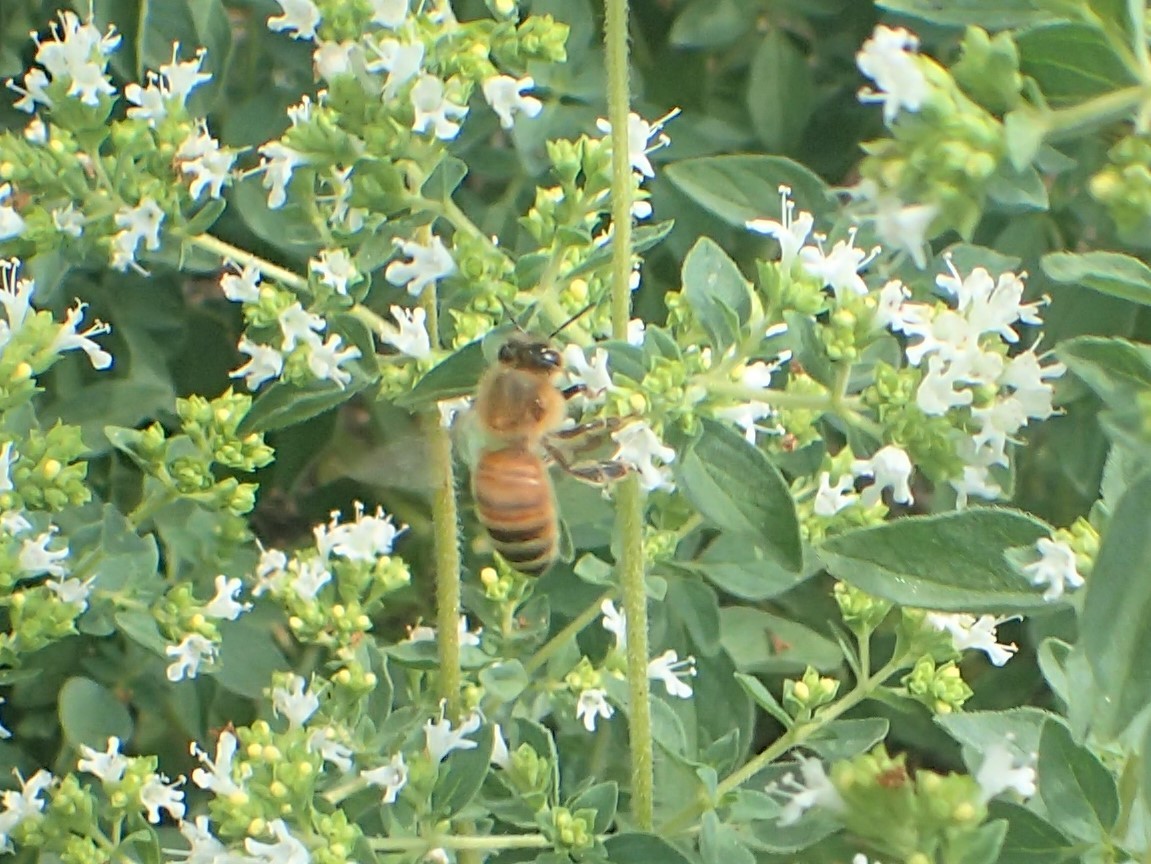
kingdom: Animalia
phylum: Arthropoda
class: Insecta
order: Hymenoptera
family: Apidae
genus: Apis
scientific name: Apis mellifera
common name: Honey bee
